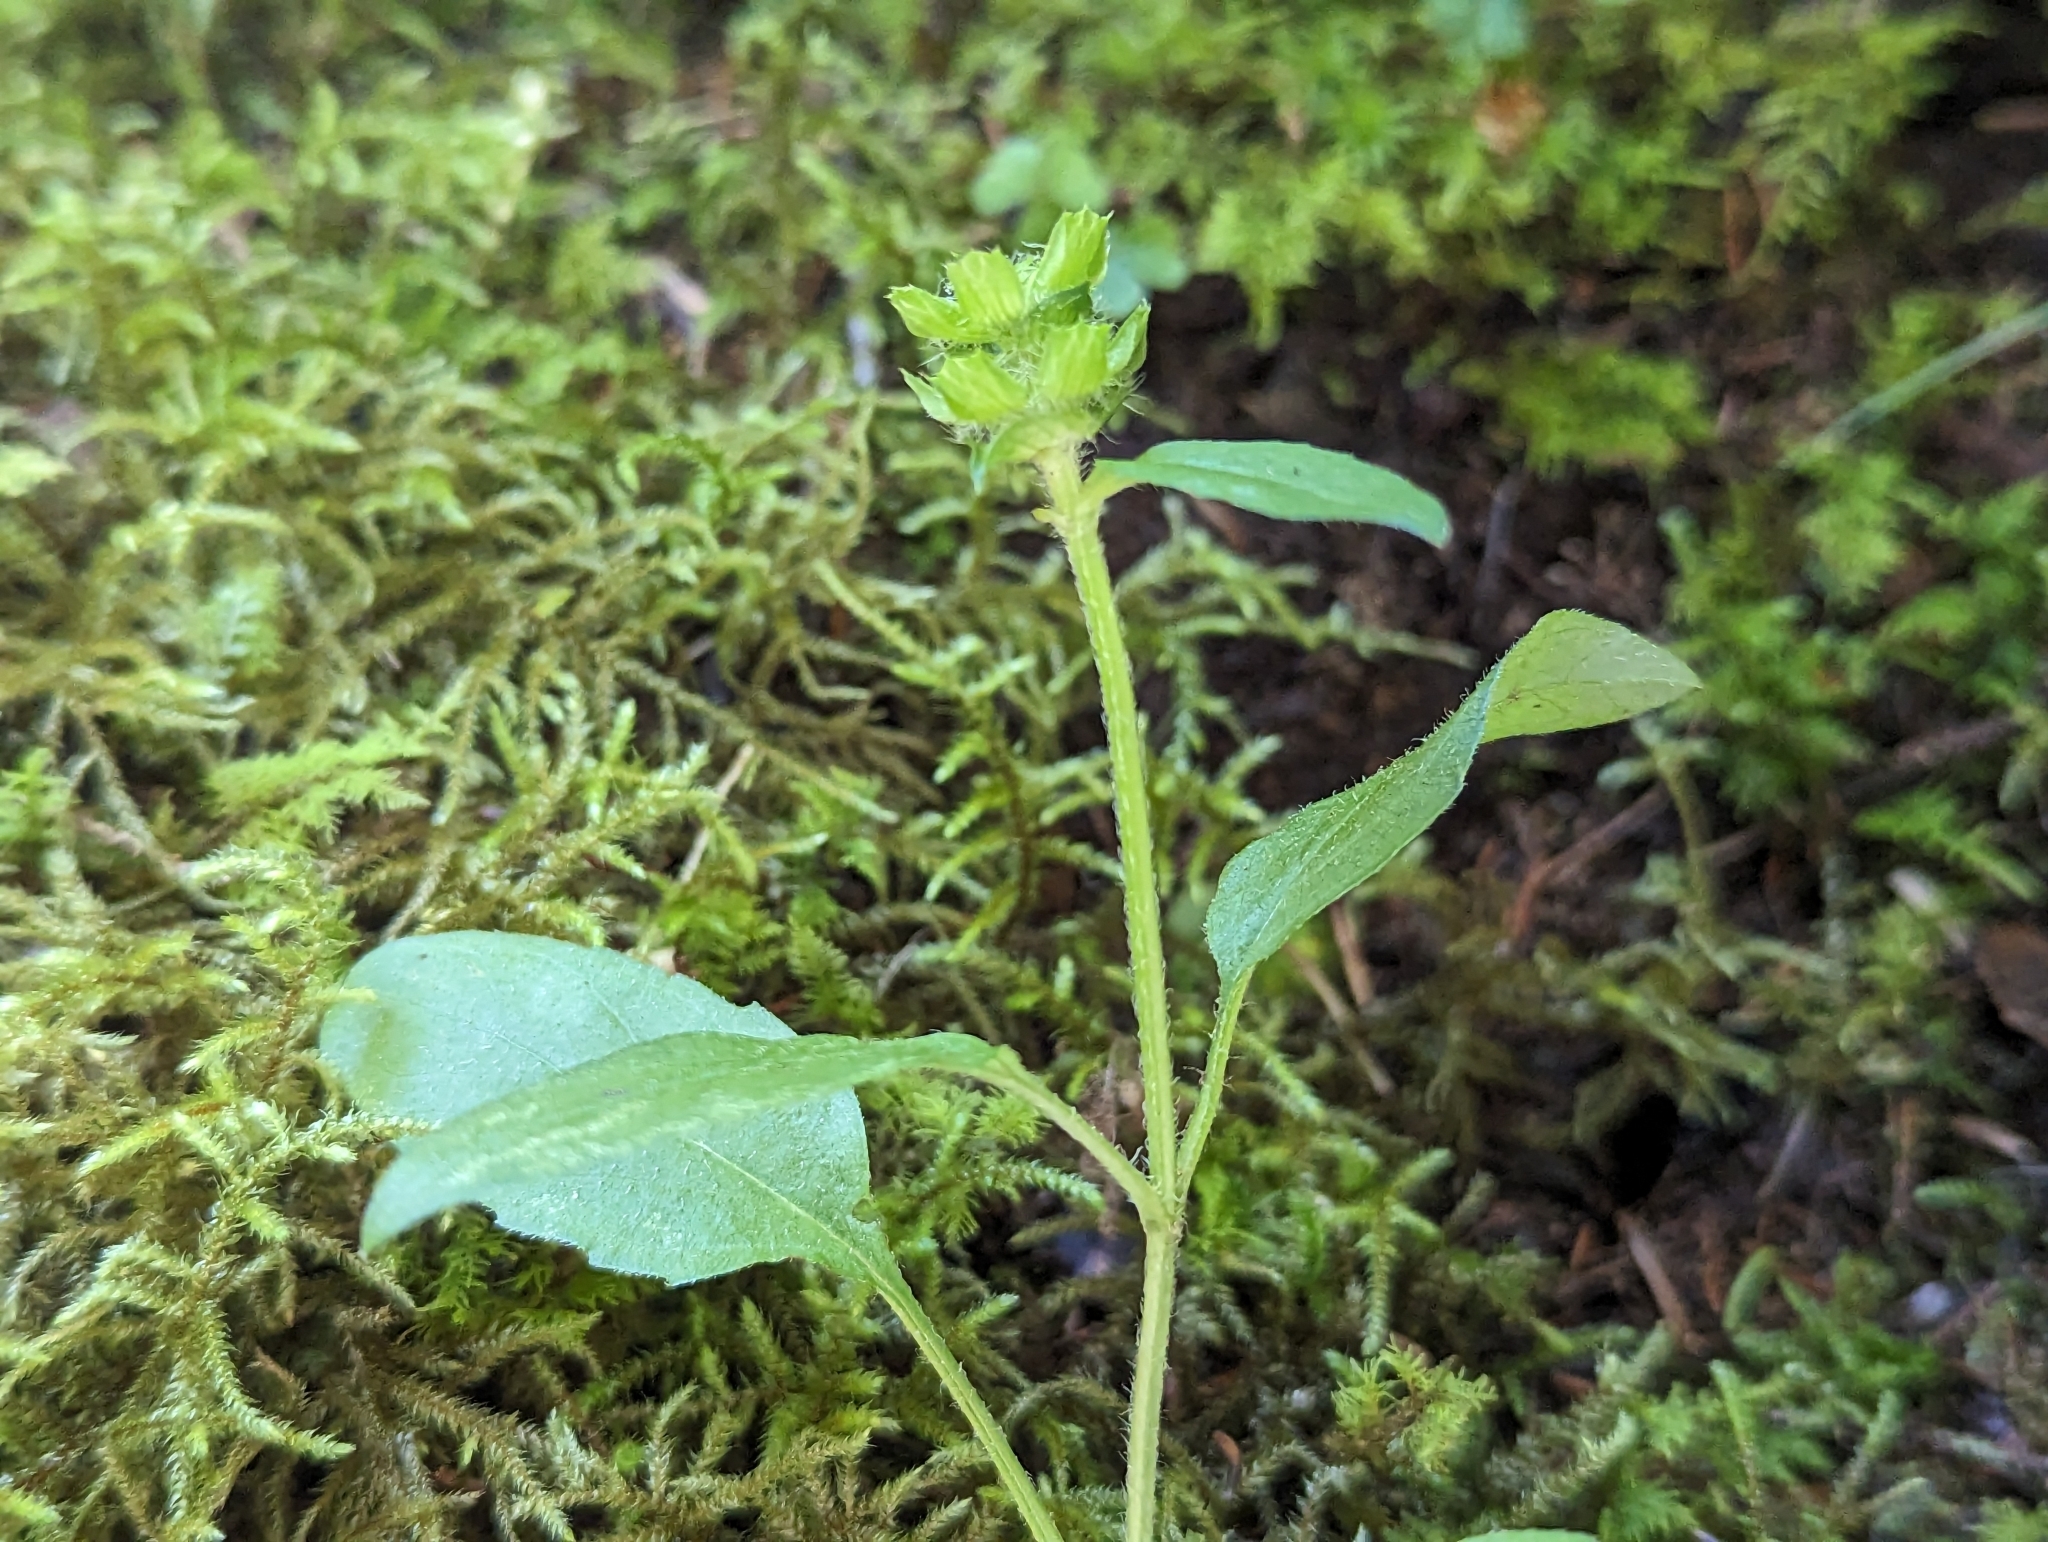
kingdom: Plantae
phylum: Tracheophyta
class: Magnoliopsida
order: Lamiales
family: Lamiaceae
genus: Prunella
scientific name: Prunella vulgaris
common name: Heal-all
